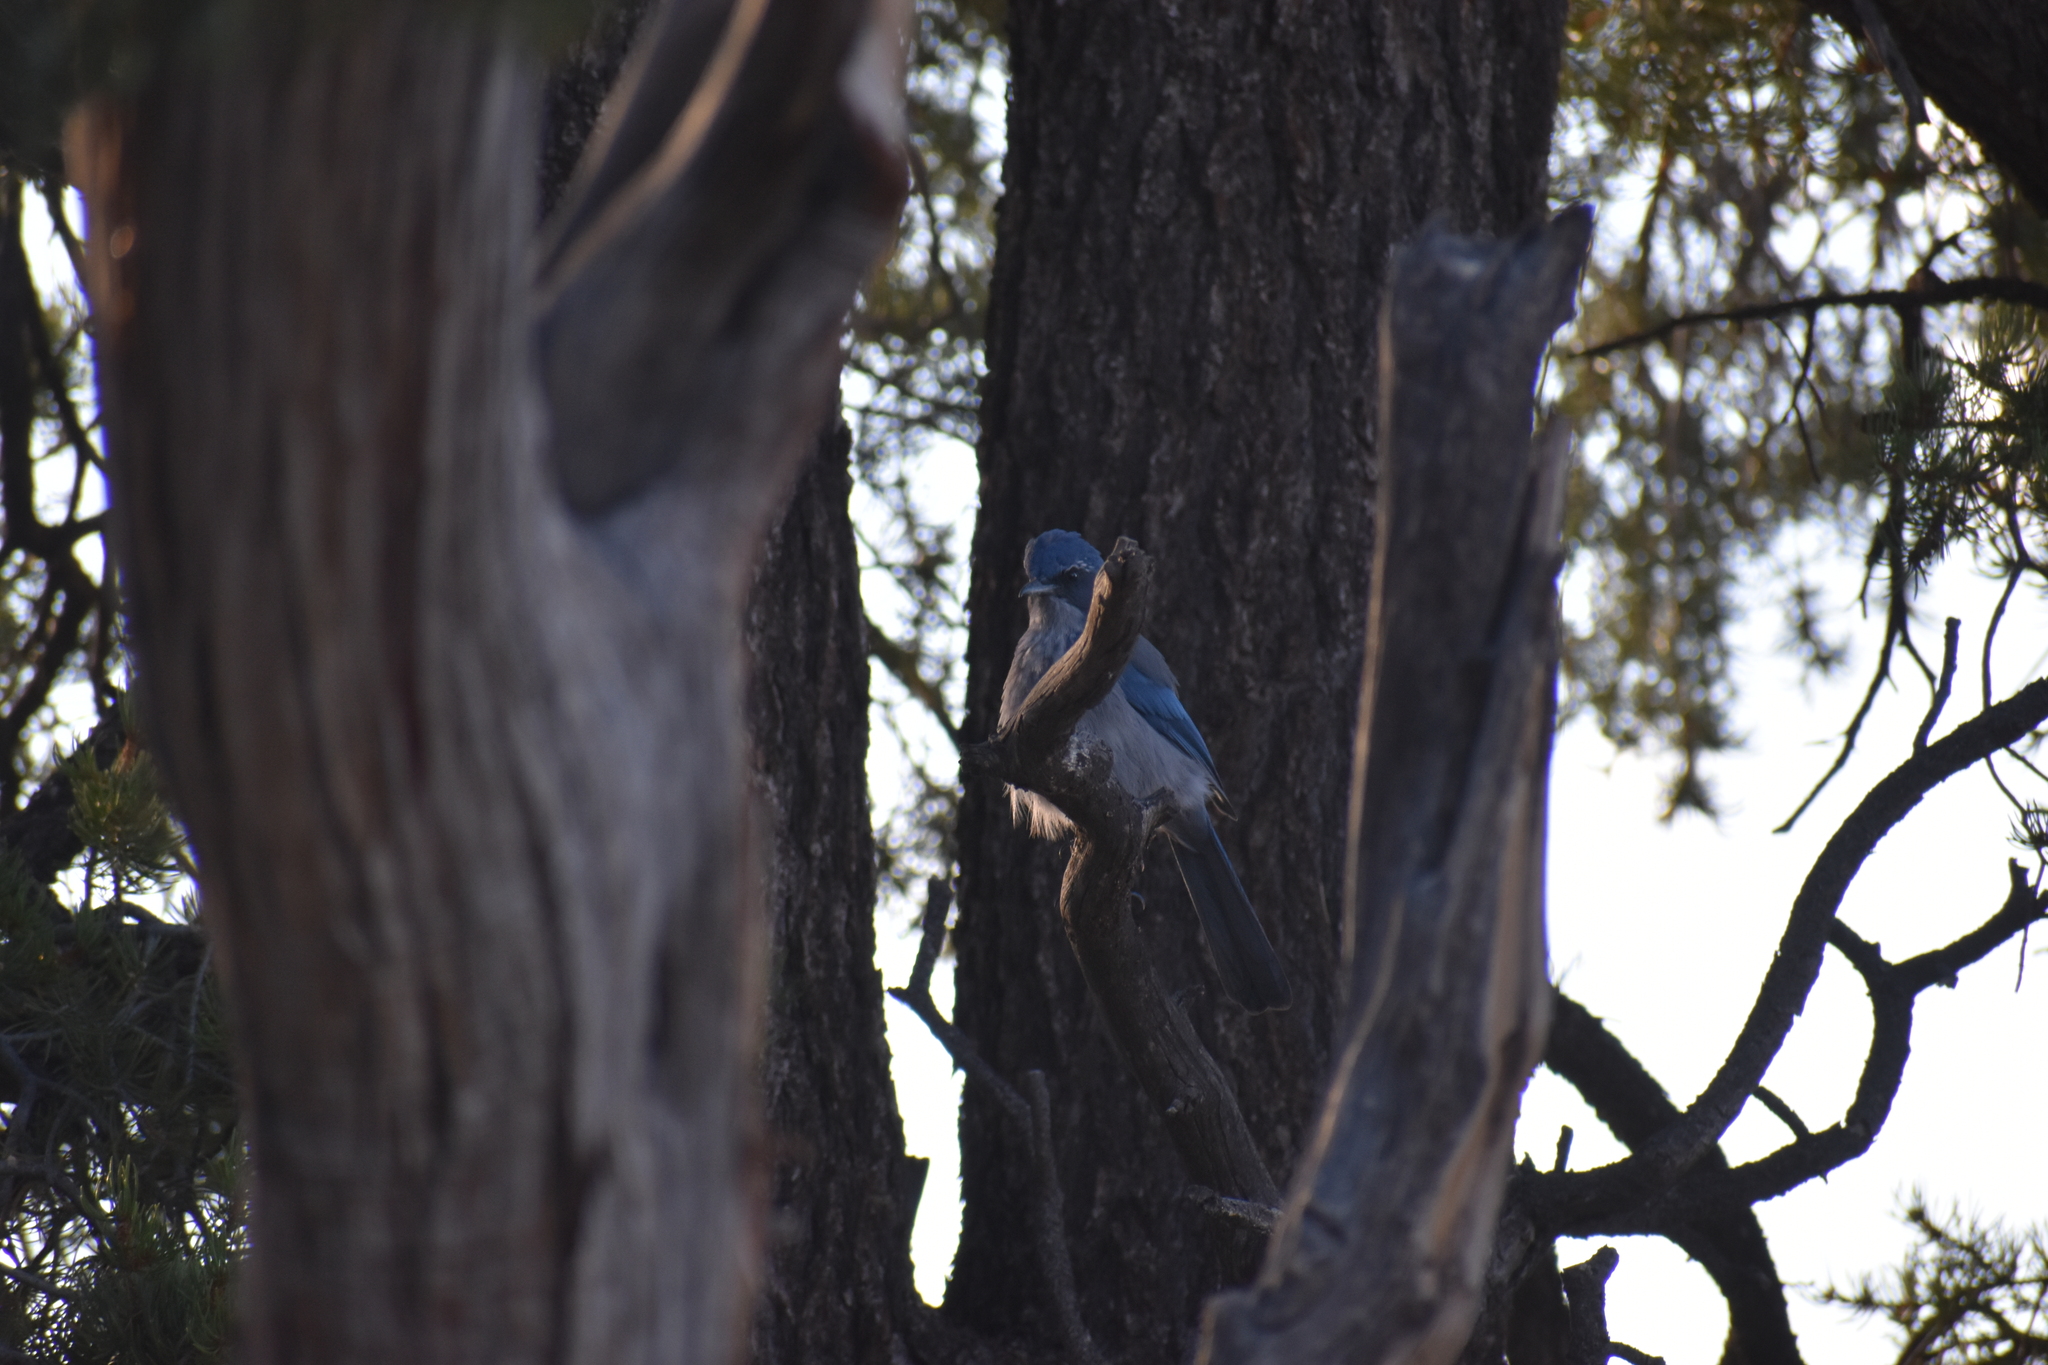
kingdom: Animalia
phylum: Chordata
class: Aves
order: Passeriformes
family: Corvidae
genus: Aphelocoma
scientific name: Aphelocoma woodhouseii
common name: Woodhouse's scrub-jay
